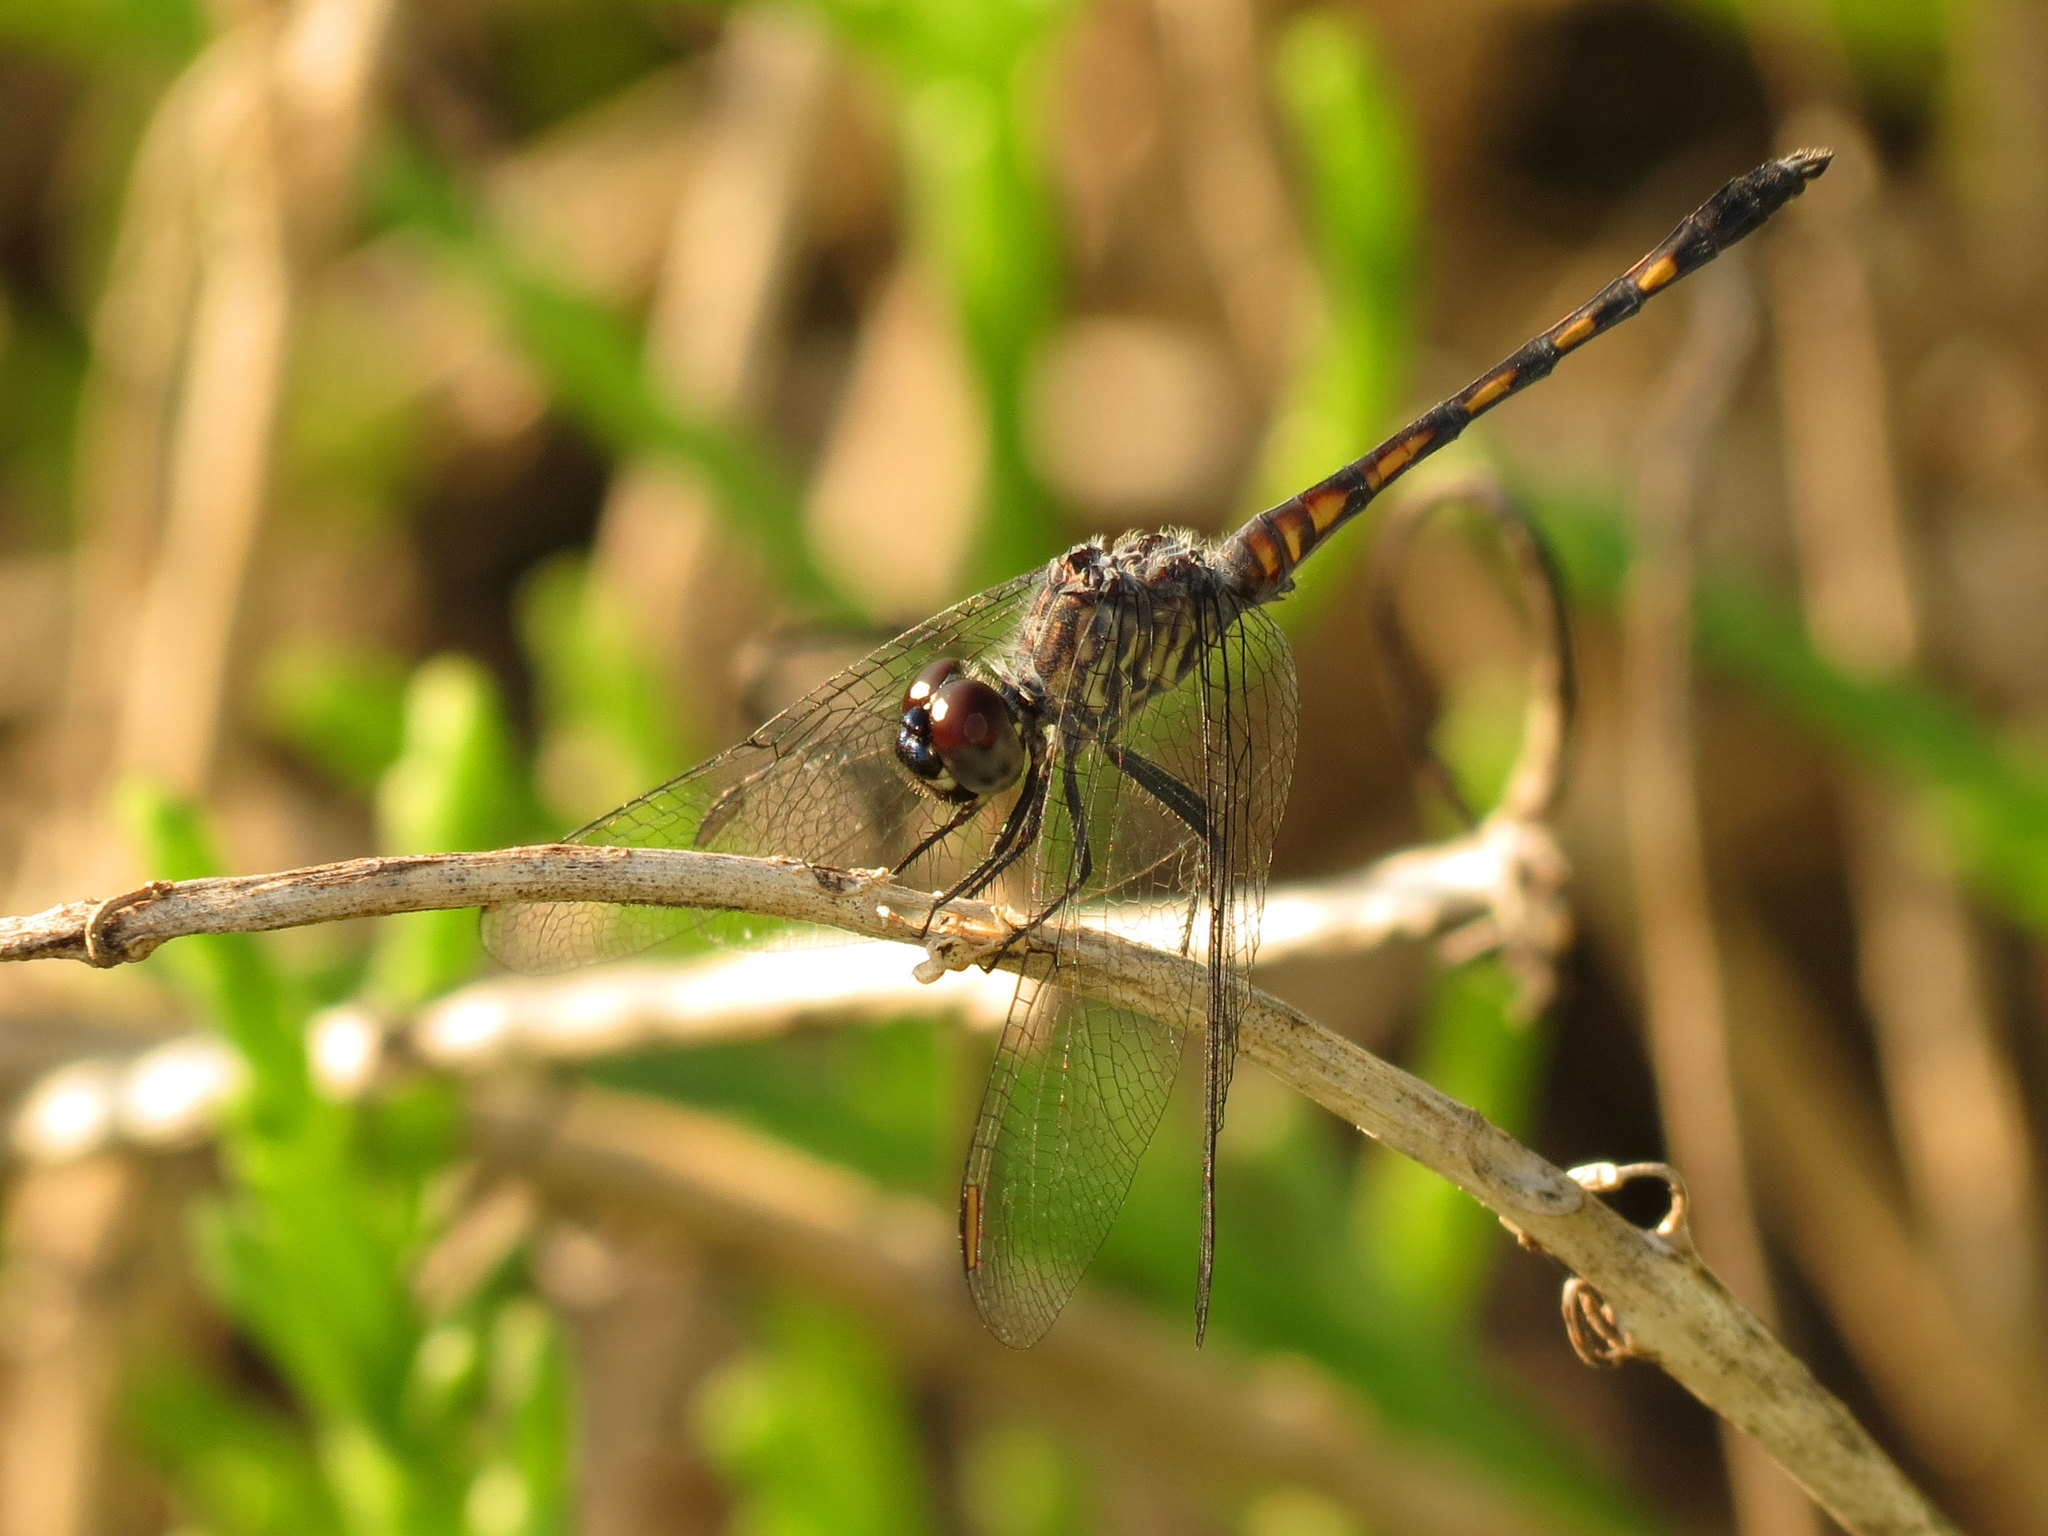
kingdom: Animalia
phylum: Arthropoda
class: Insecta
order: Odonata
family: Libellulidae
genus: Erythrodiplax
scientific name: Erythrodiplax berenice
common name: Seaside dragonlet
